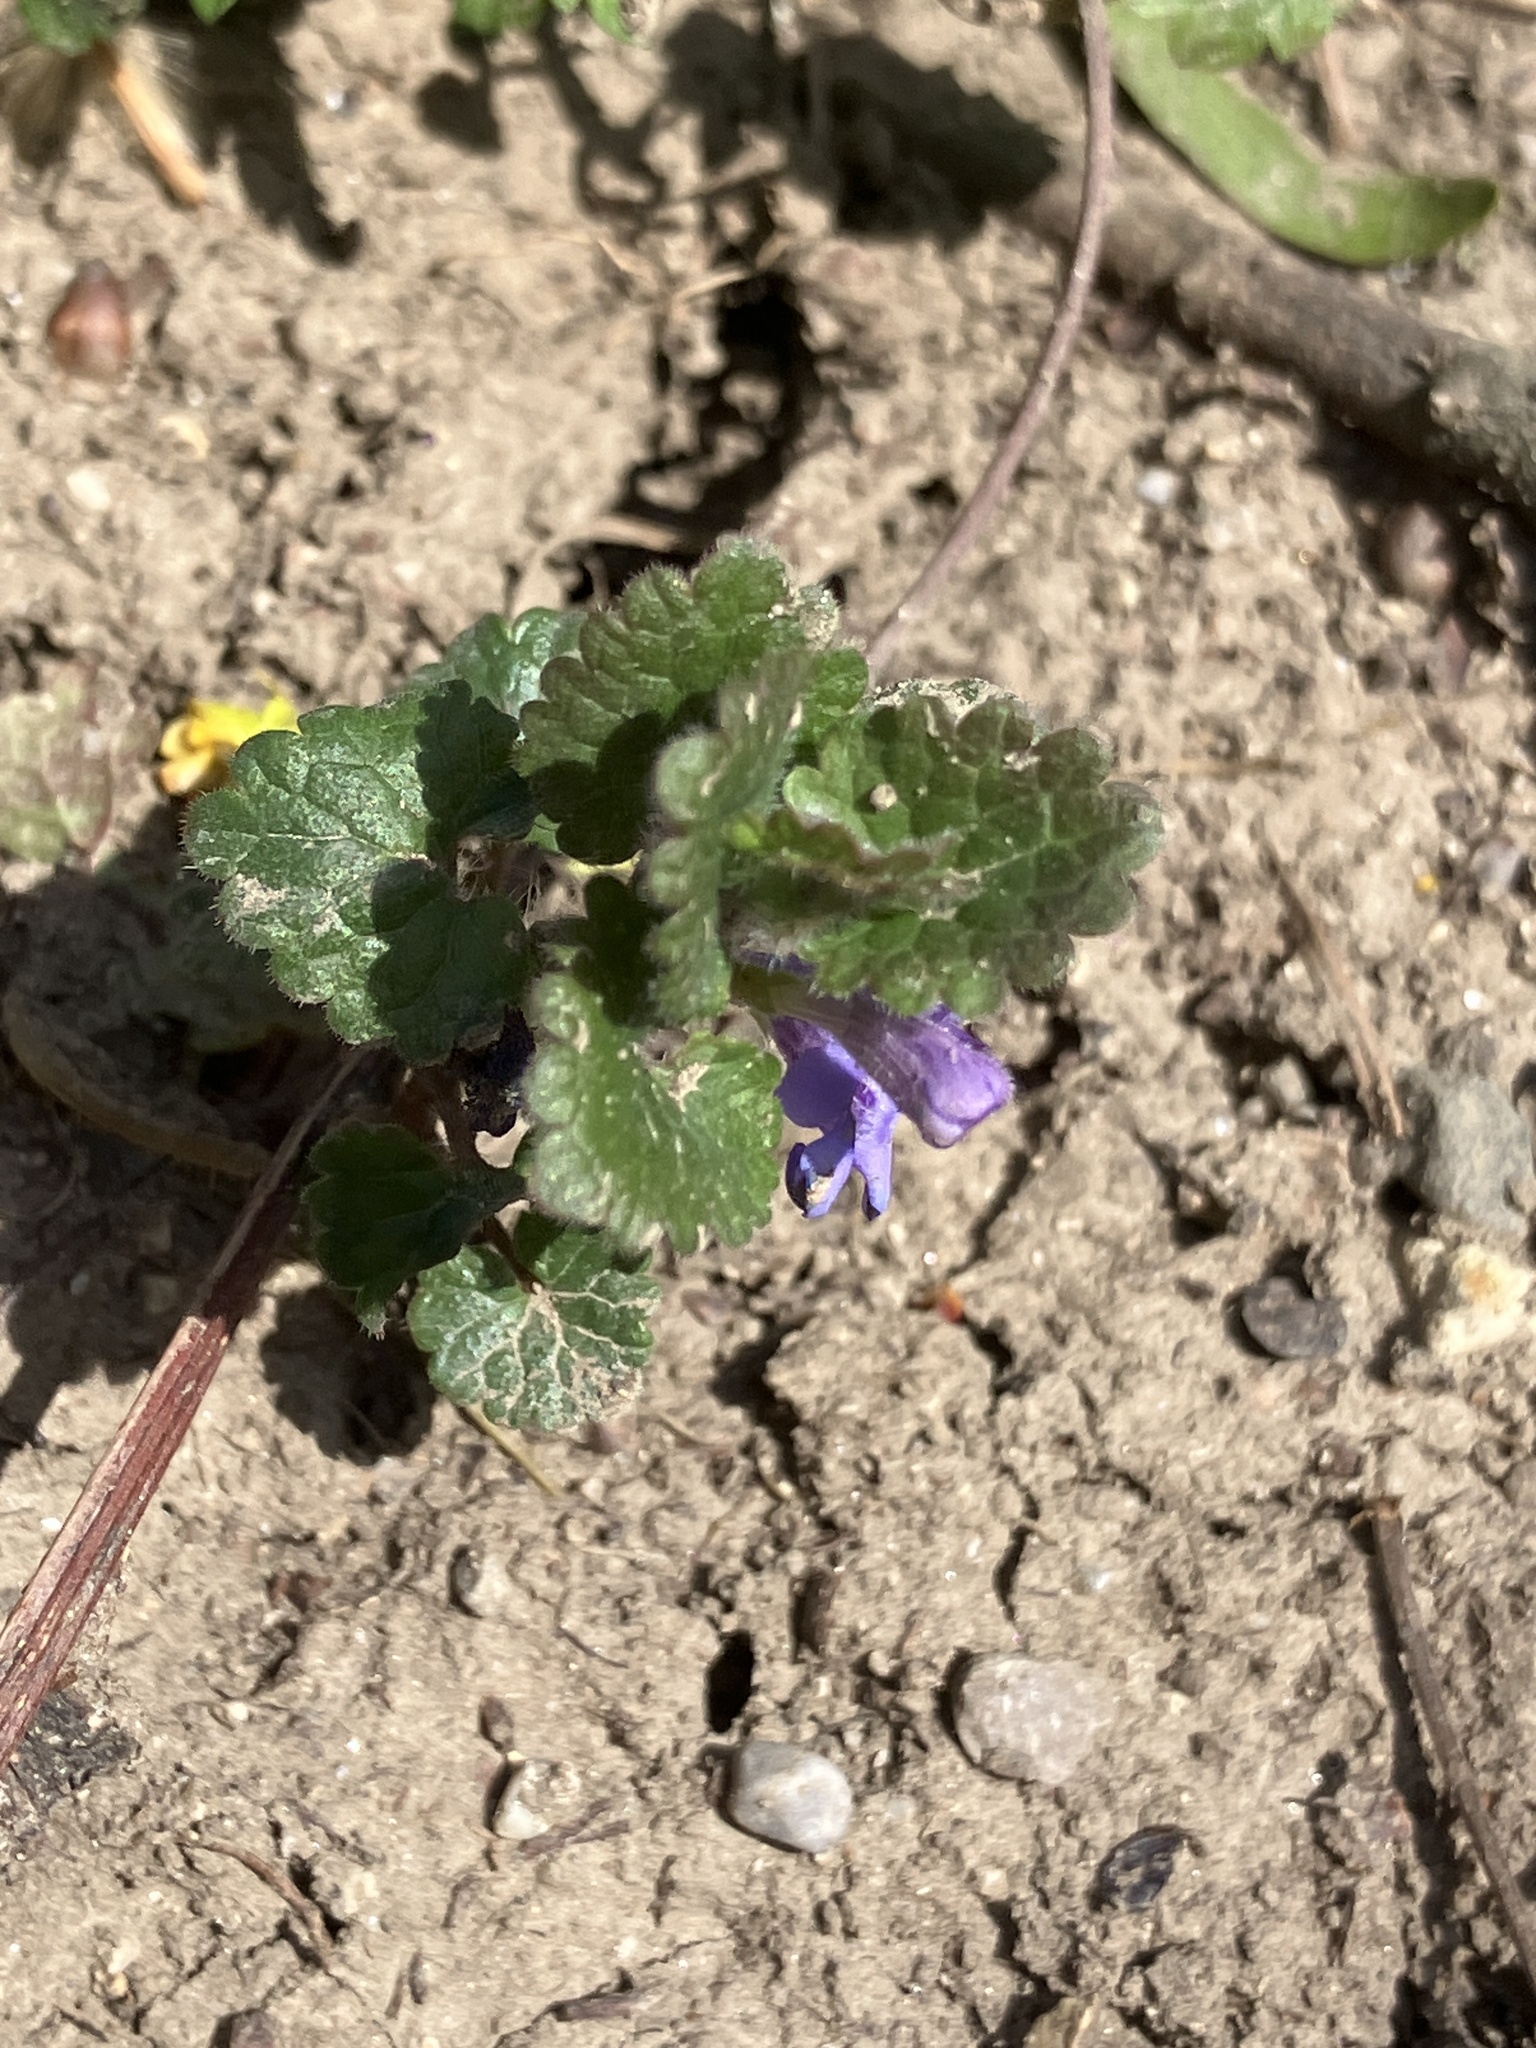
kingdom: Plantae
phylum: Tracheophyta
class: Magnoliopsida
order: Lamiales
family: Lamiaceae
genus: Glechoma
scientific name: Glechoma hederacea
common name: Ground ivy
